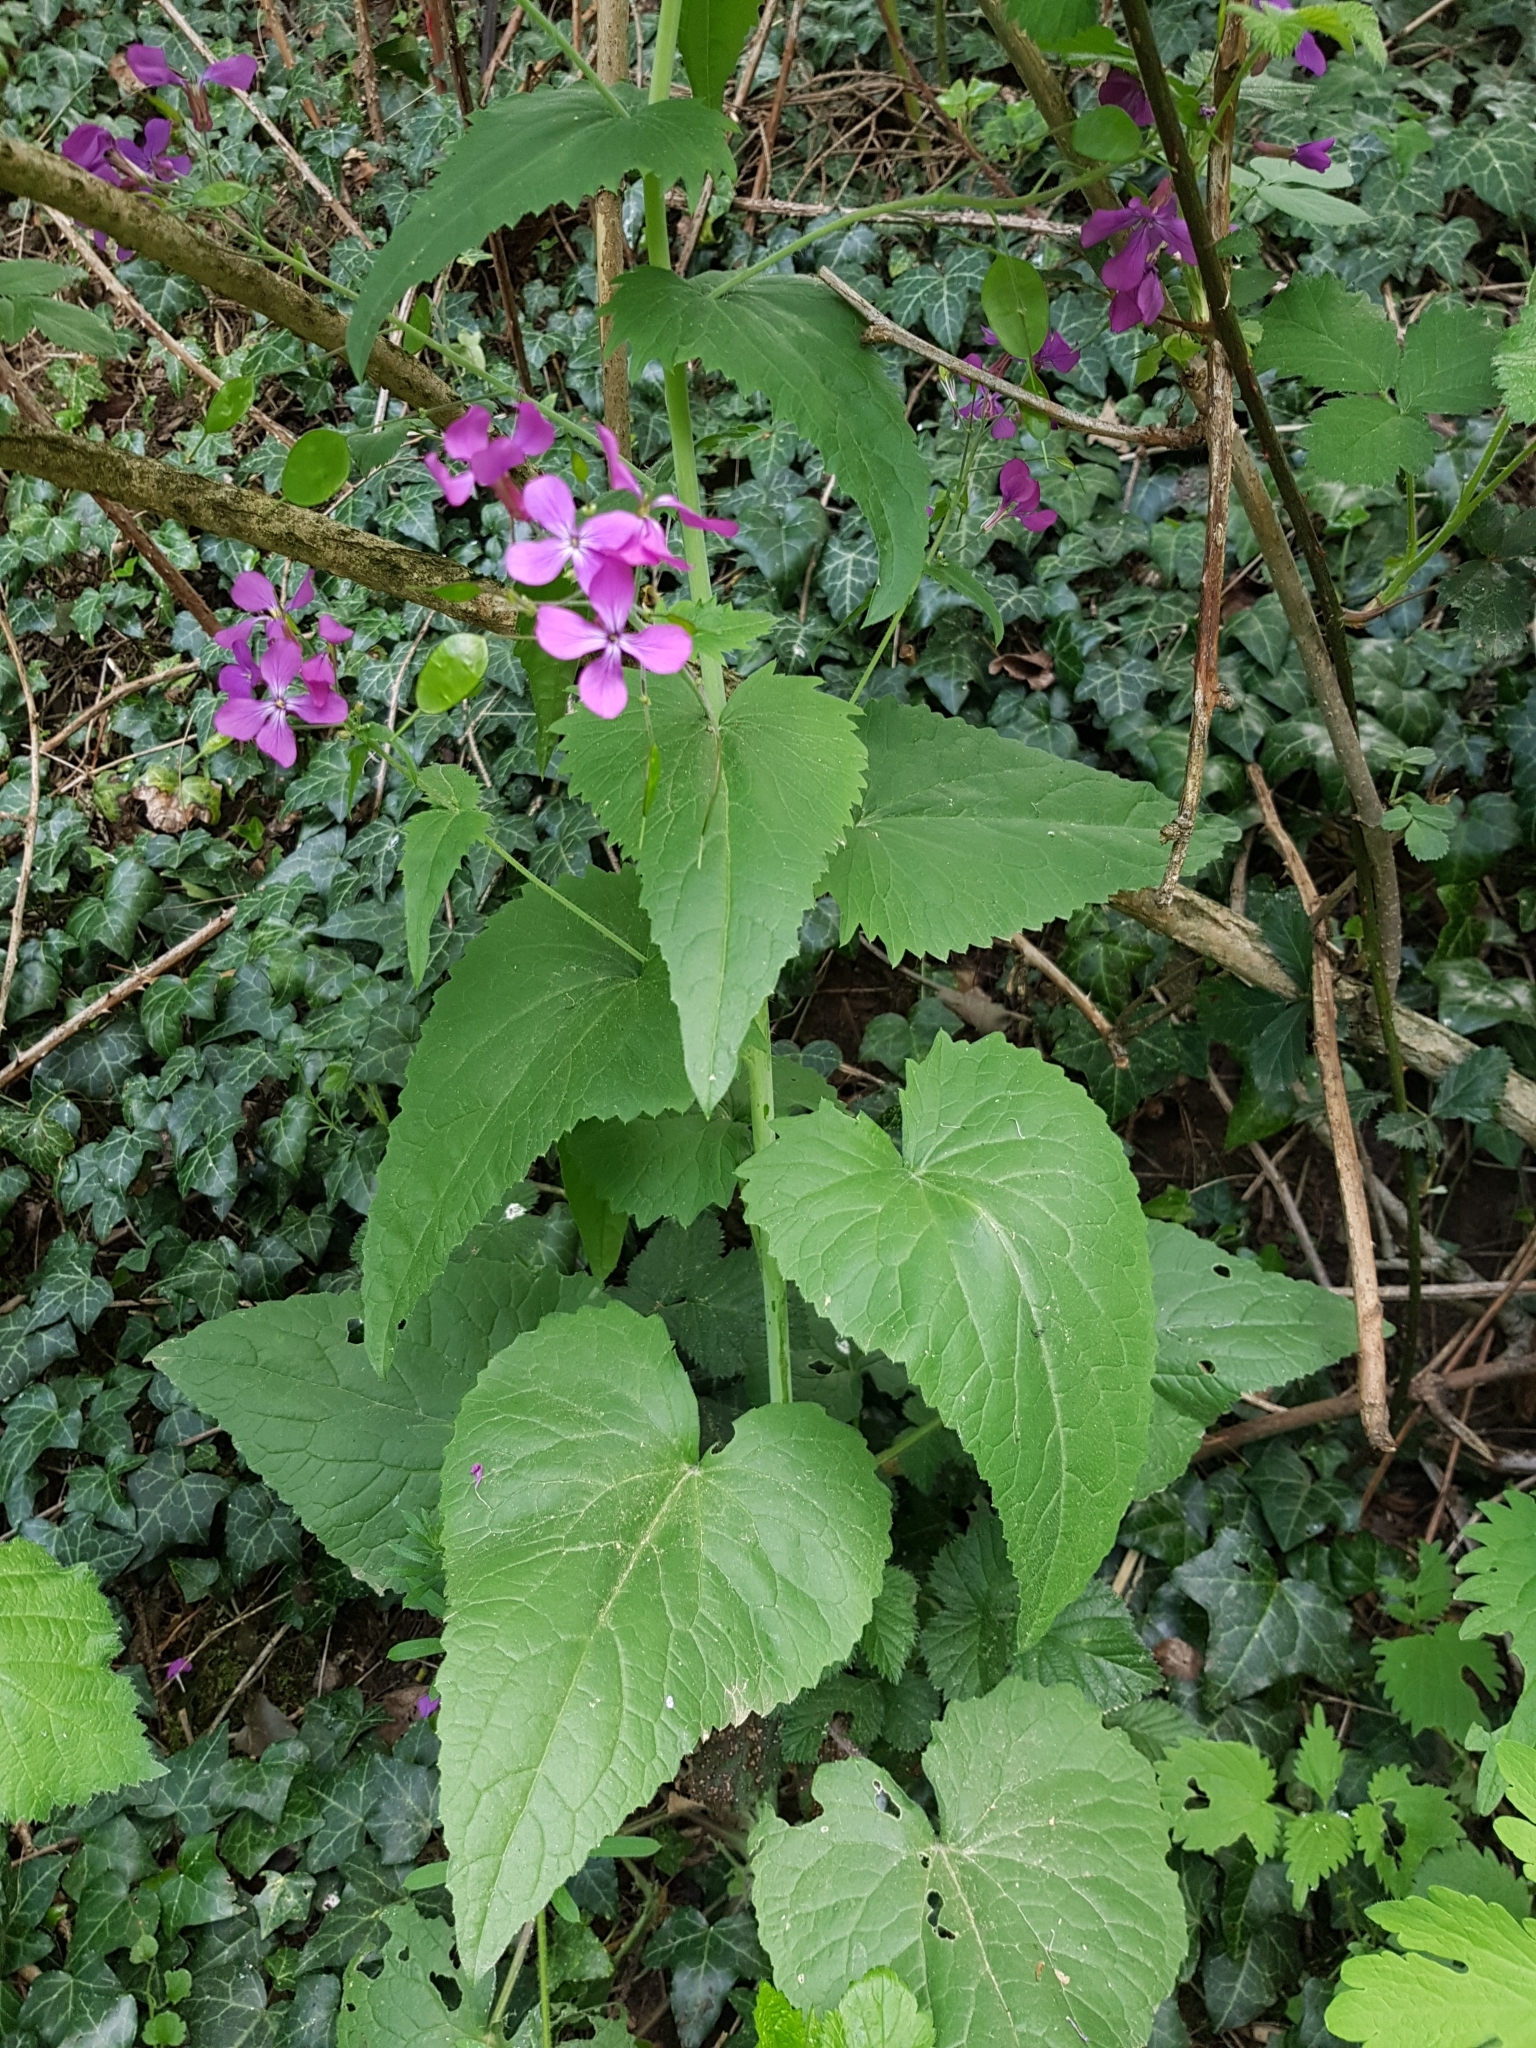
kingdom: Plantae
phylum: Tracheophyta
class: Magnoliopsida
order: Brassicales
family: Brassicaceae
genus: Lunaria
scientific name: Lunaria annua
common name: Honesty
